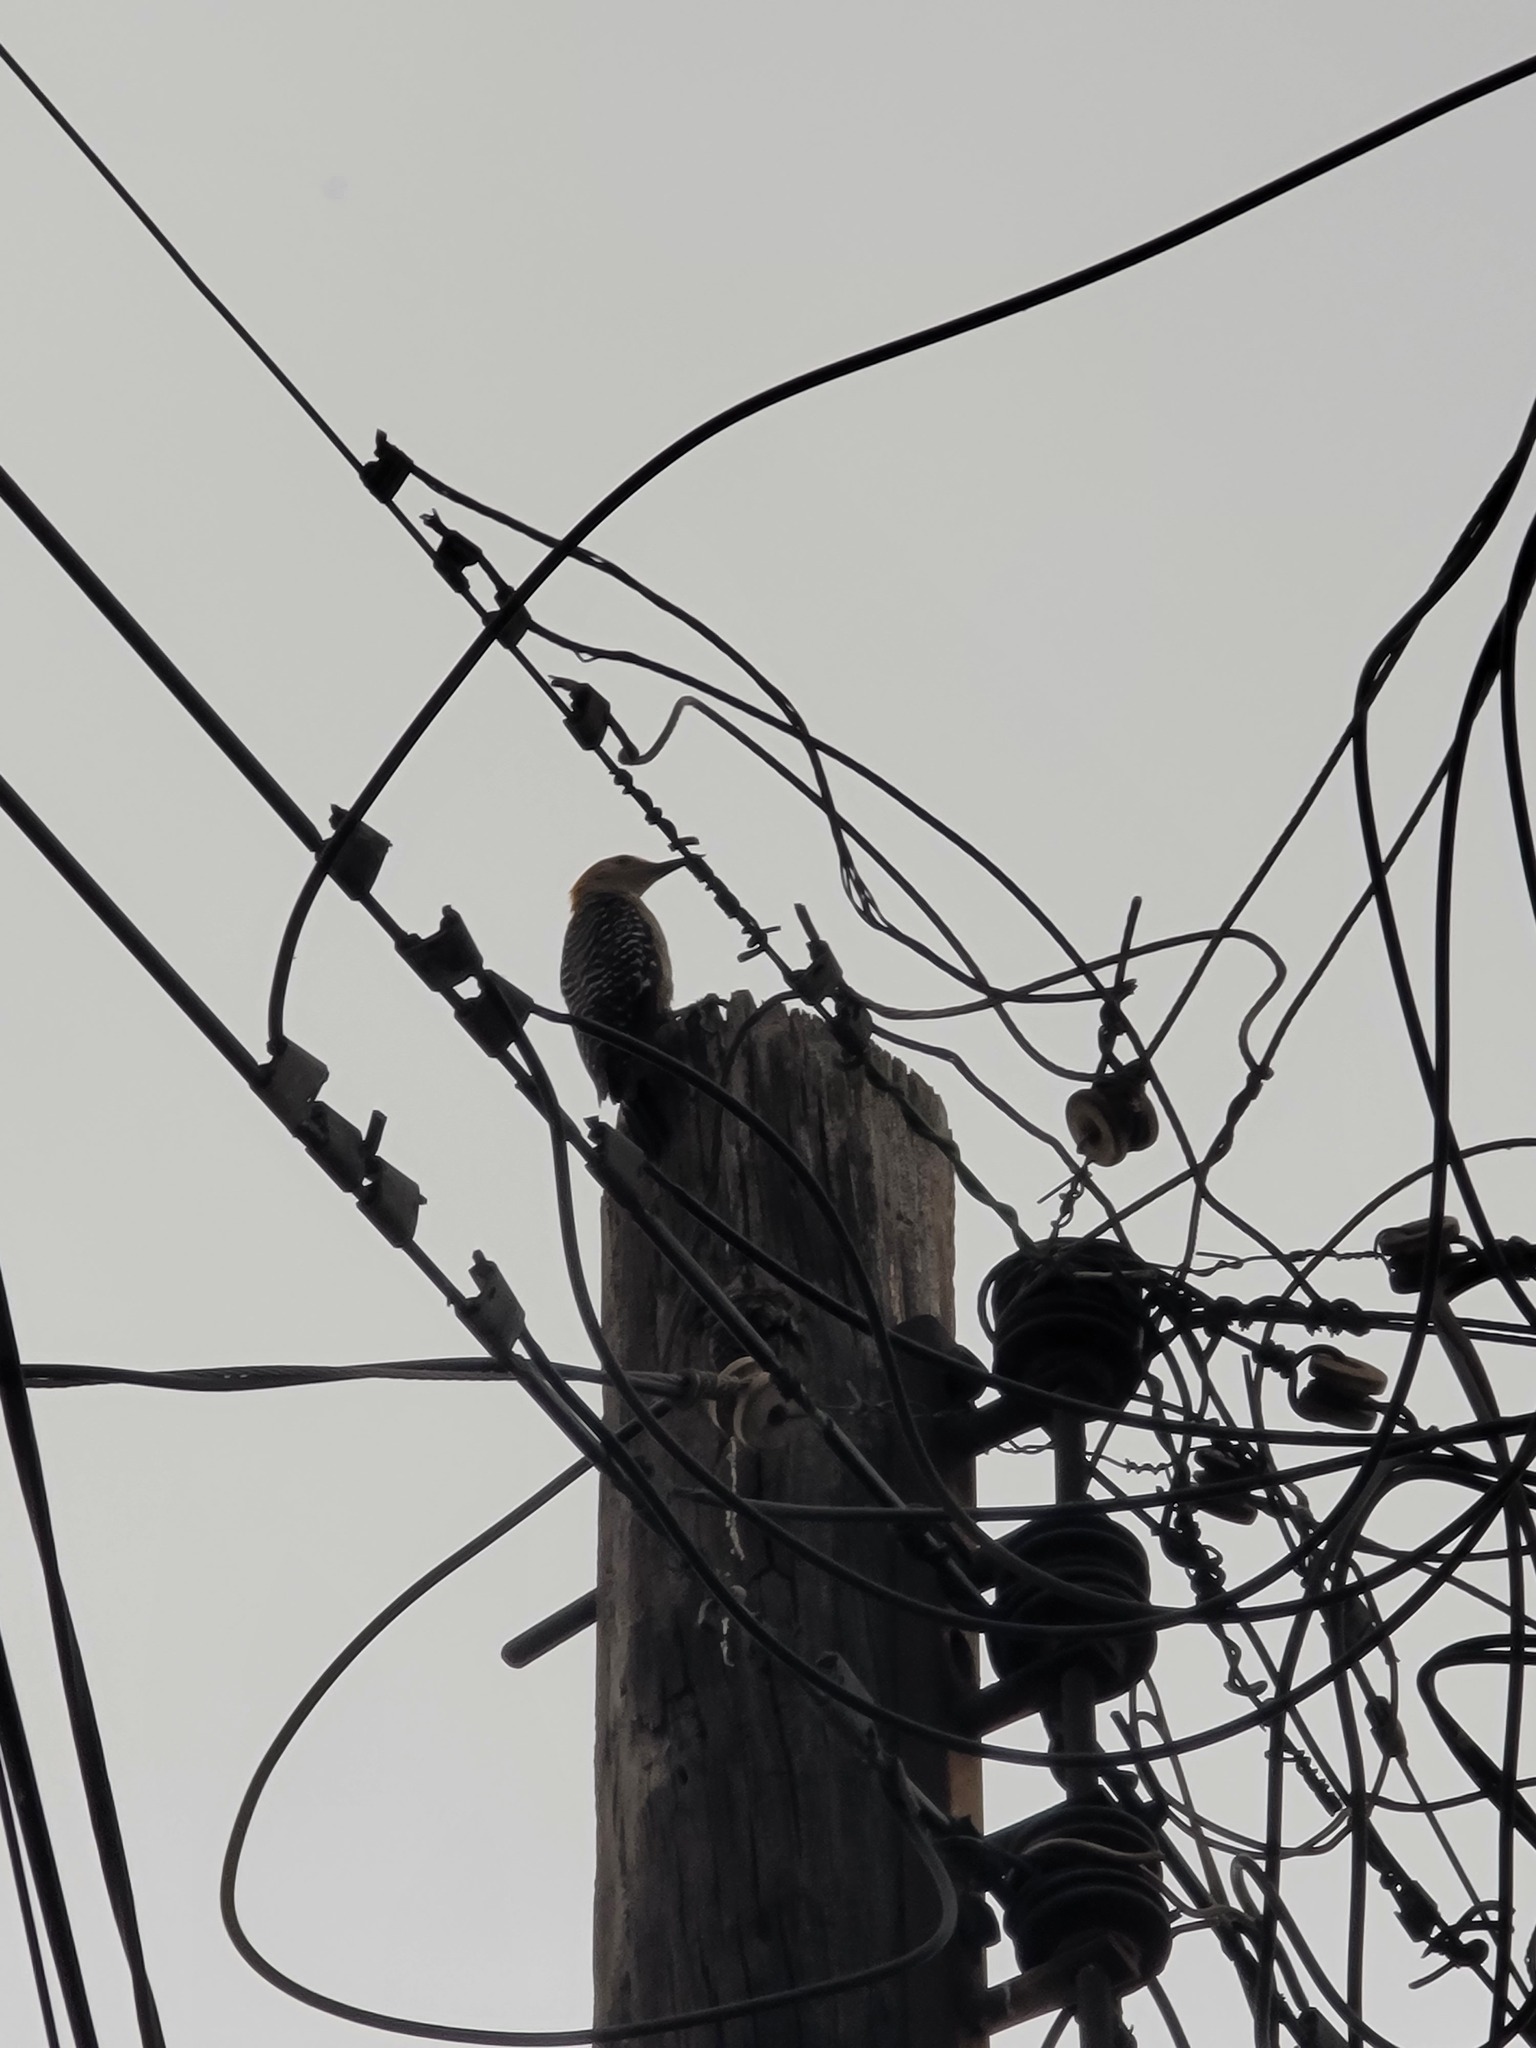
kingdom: Animalia
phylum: Chordata
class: Aves
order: Piciformes
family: Picidae
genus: Melanerpes
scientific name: Melanerpes aurifrons
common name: Golden-fronted woodpecker
